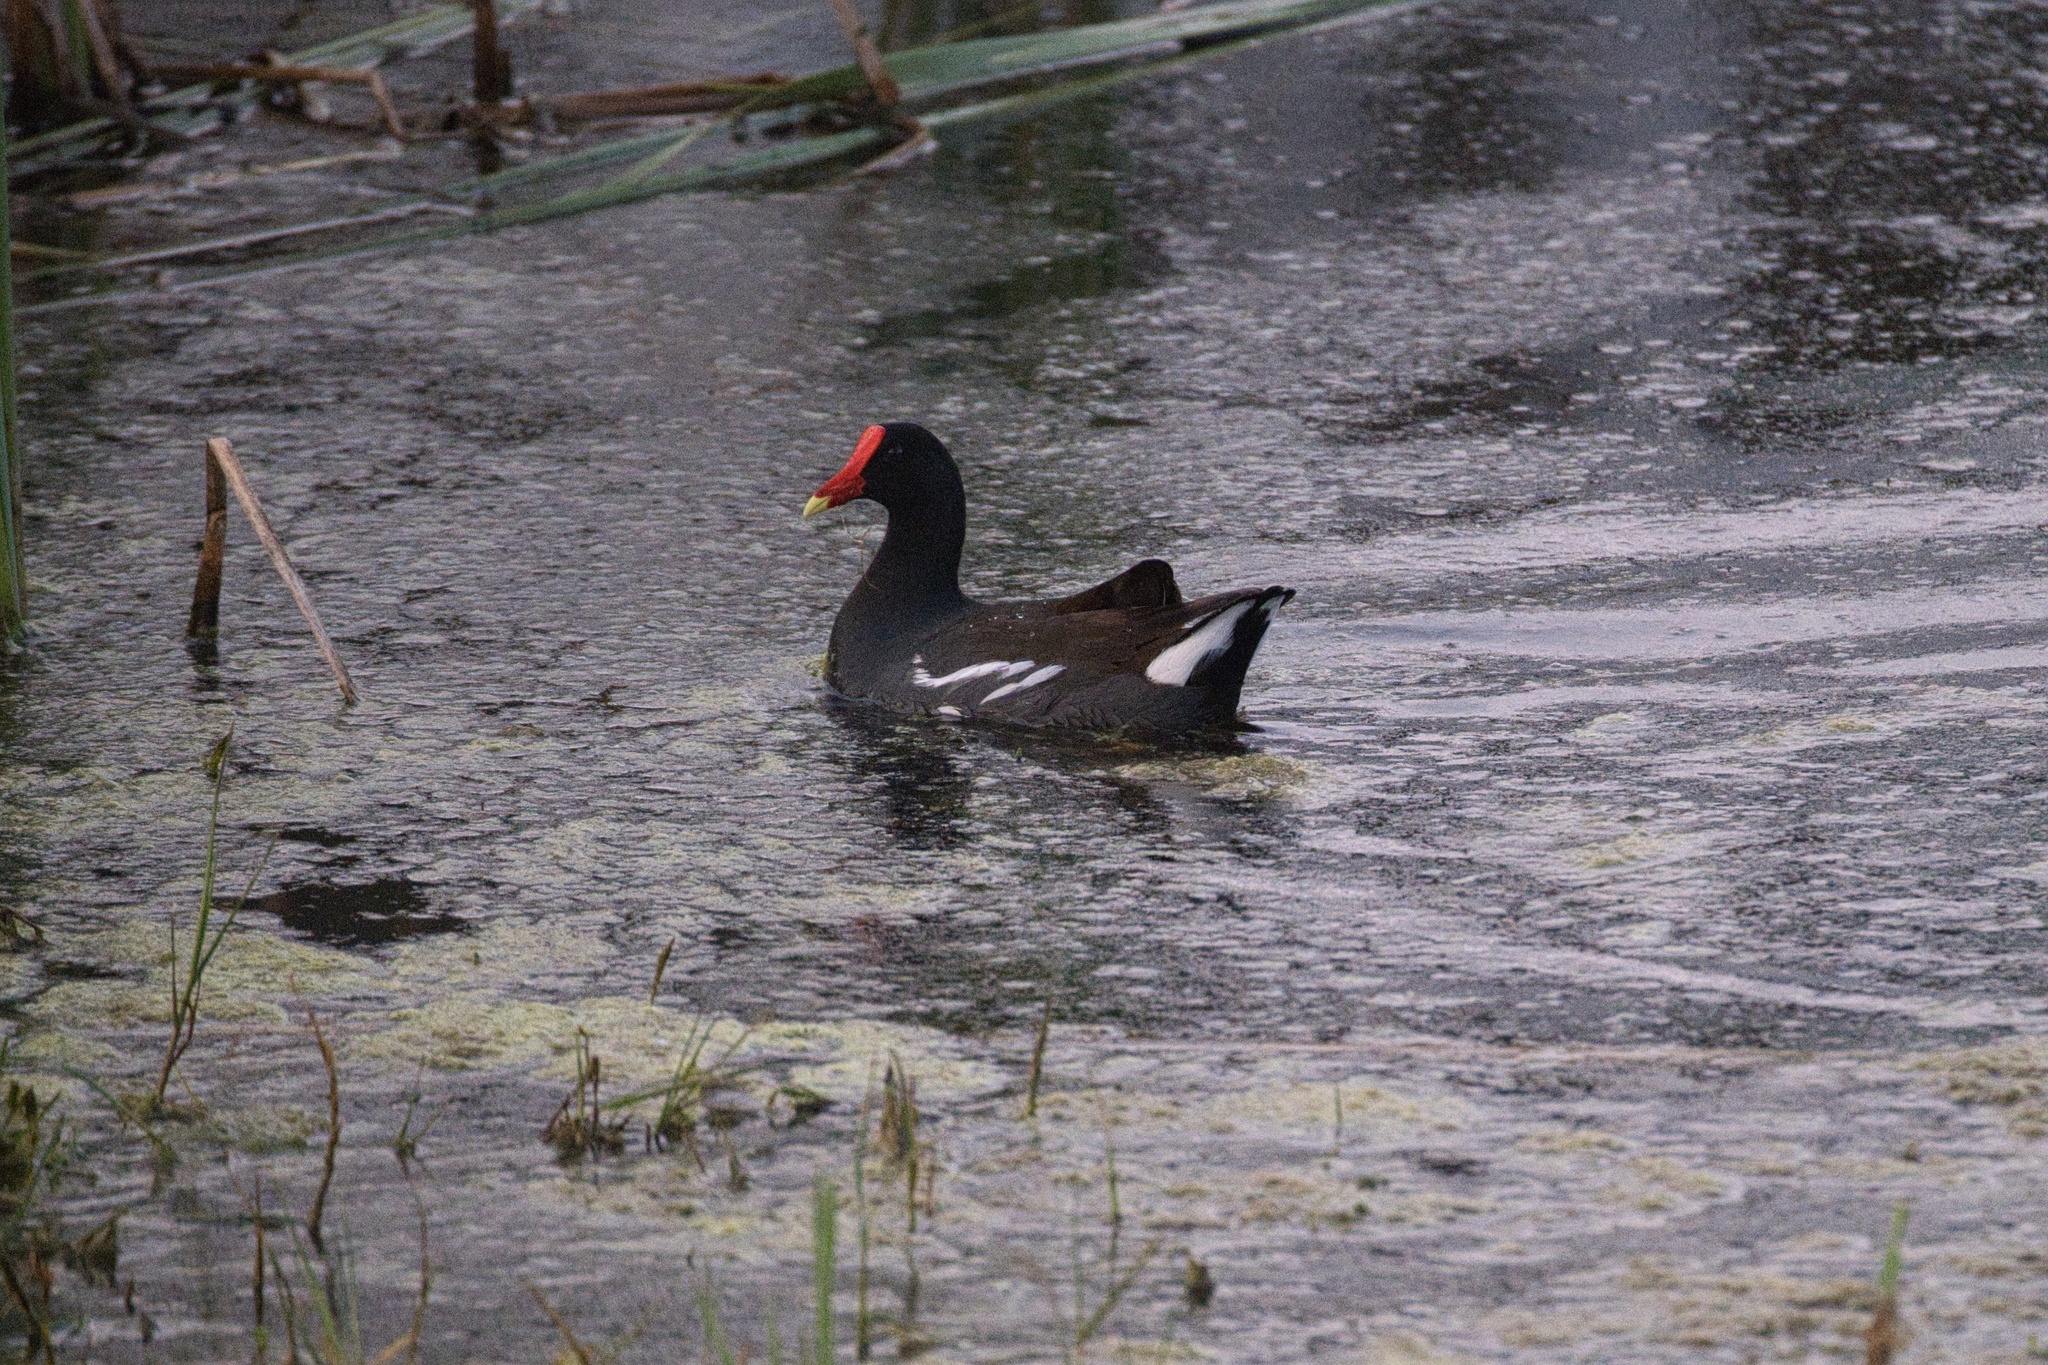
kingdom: Animalia
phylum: Chordata
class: Aves
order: Gruiformes
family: Rallidae
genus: Gallinula
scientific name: Gallinula chloropus
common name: Common moorhen
